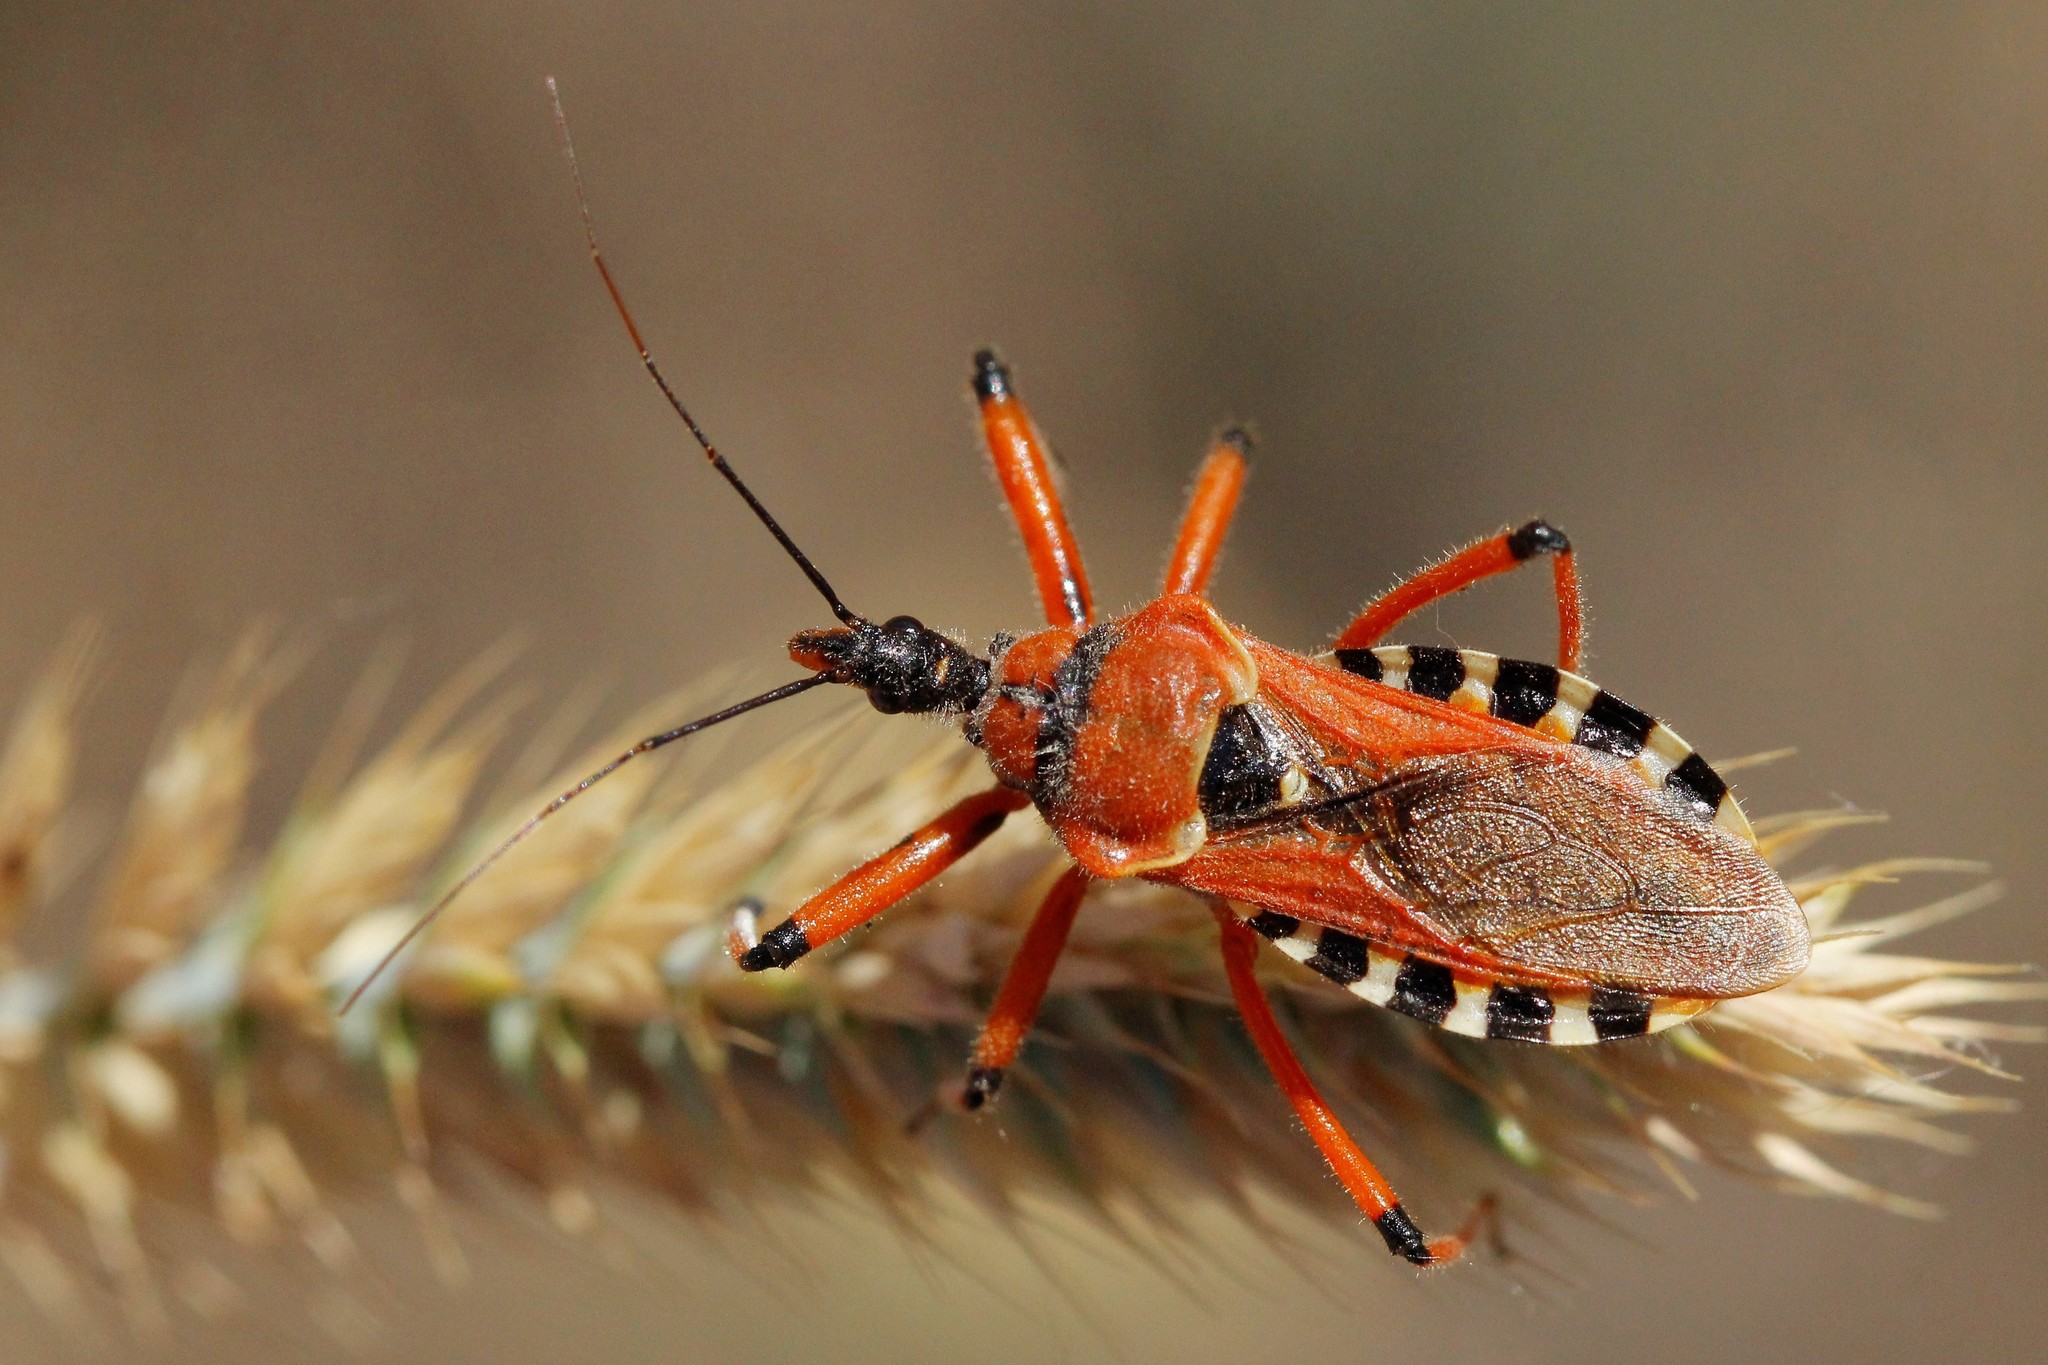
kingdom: Animalia
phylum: Arthropoda
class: Insecta
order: Hemiptera
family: Reduviidae
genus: Rhynocoris
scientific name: Rhynocoris iracundus
